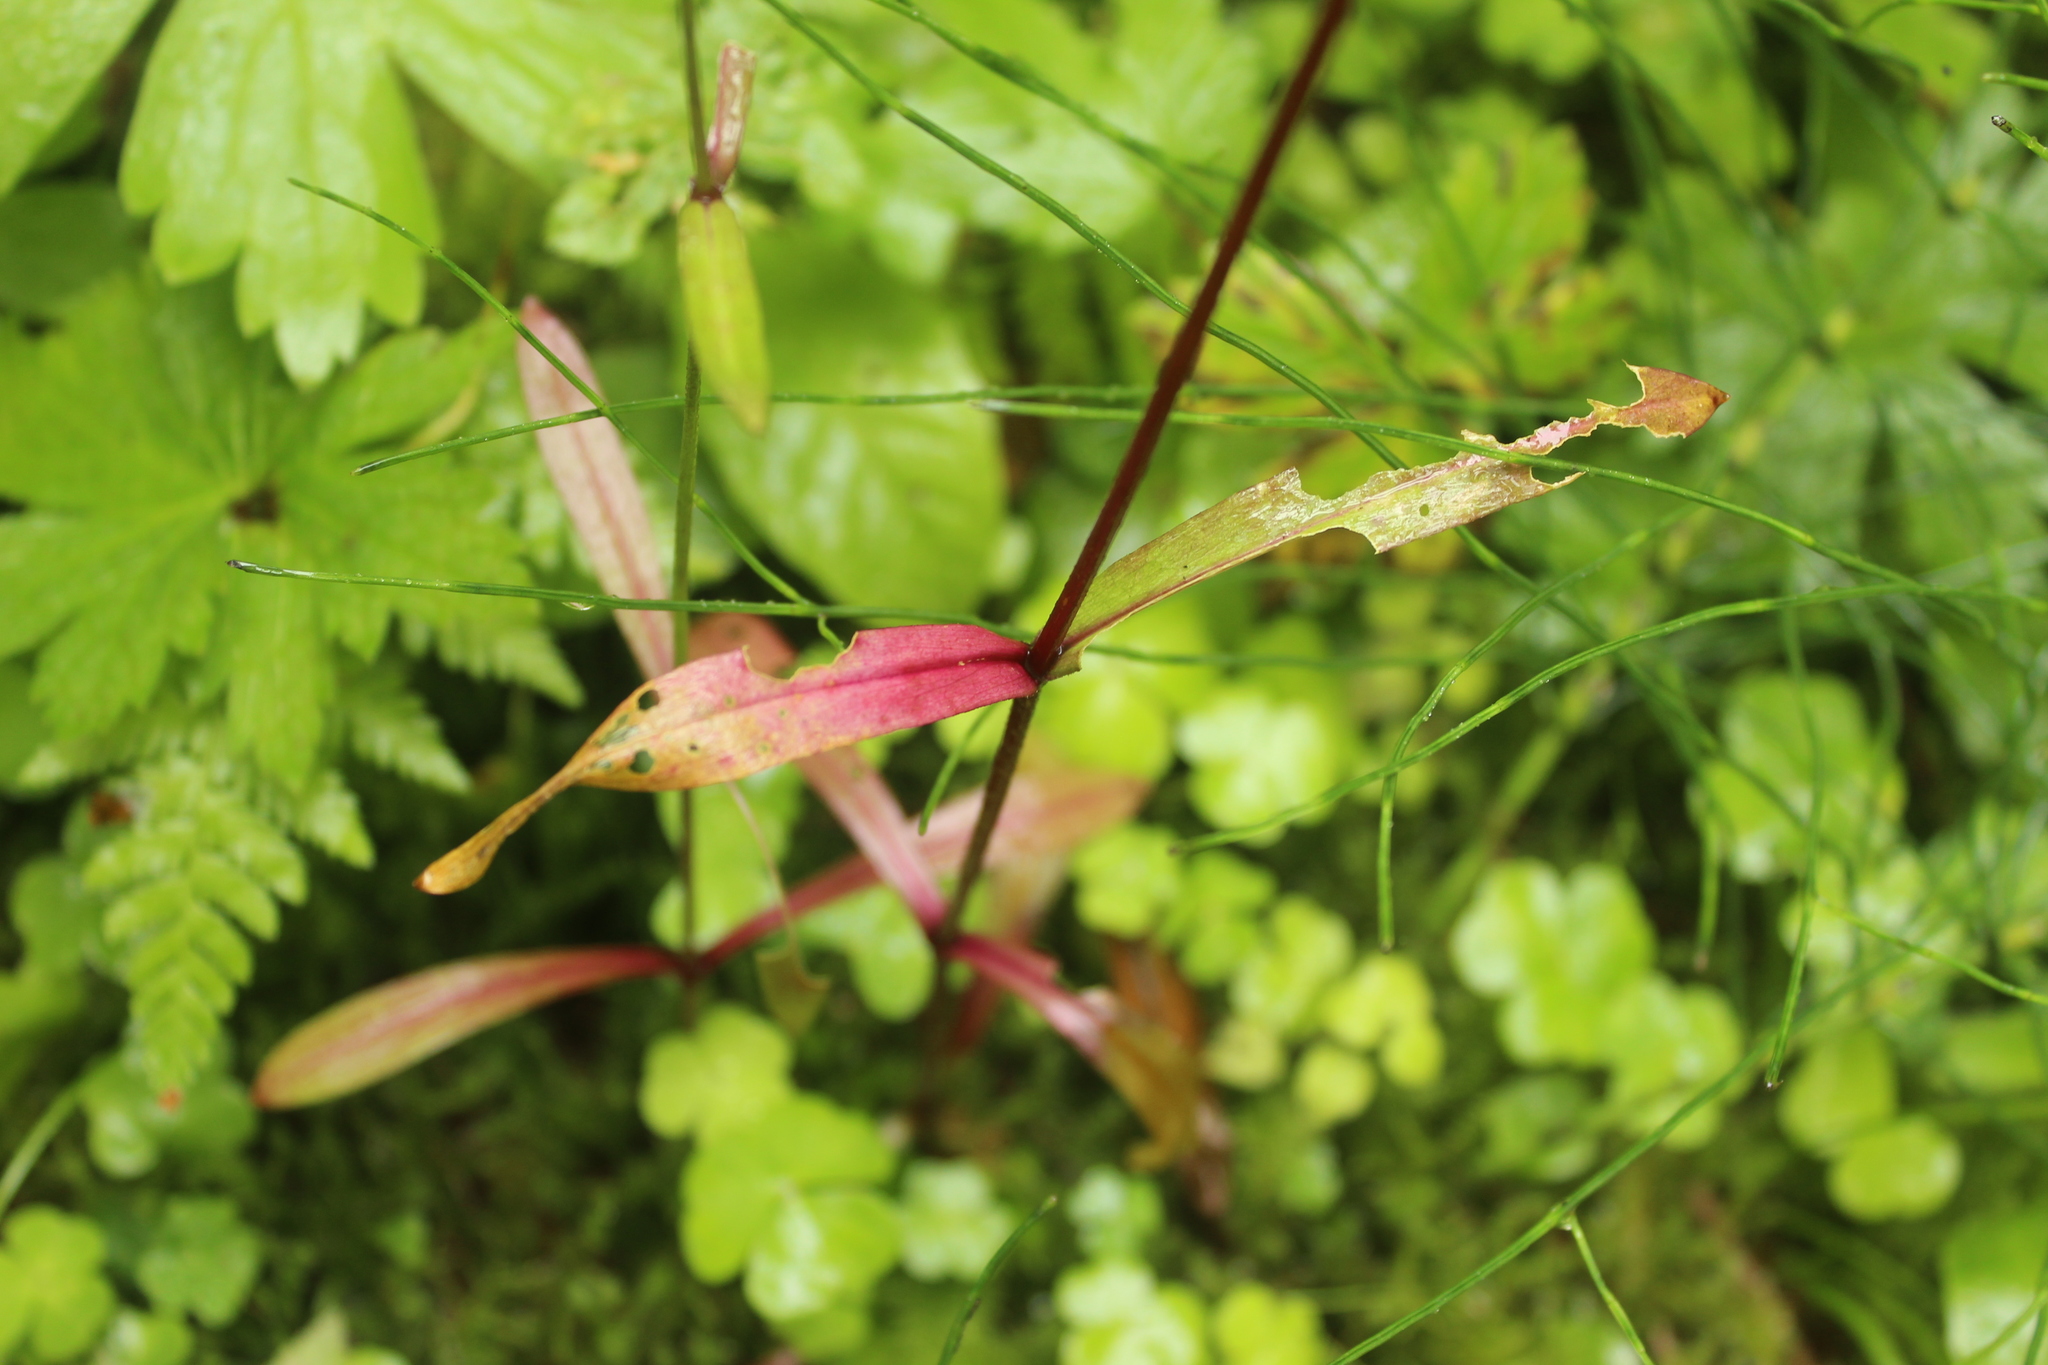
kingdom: Plantae
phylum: Tracheophyta
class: Magnoliopsida
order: Caryophyllales
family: Caryophyllaceae
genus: Silene
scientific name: Silene flos-cuculi
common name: Ragged-robin
